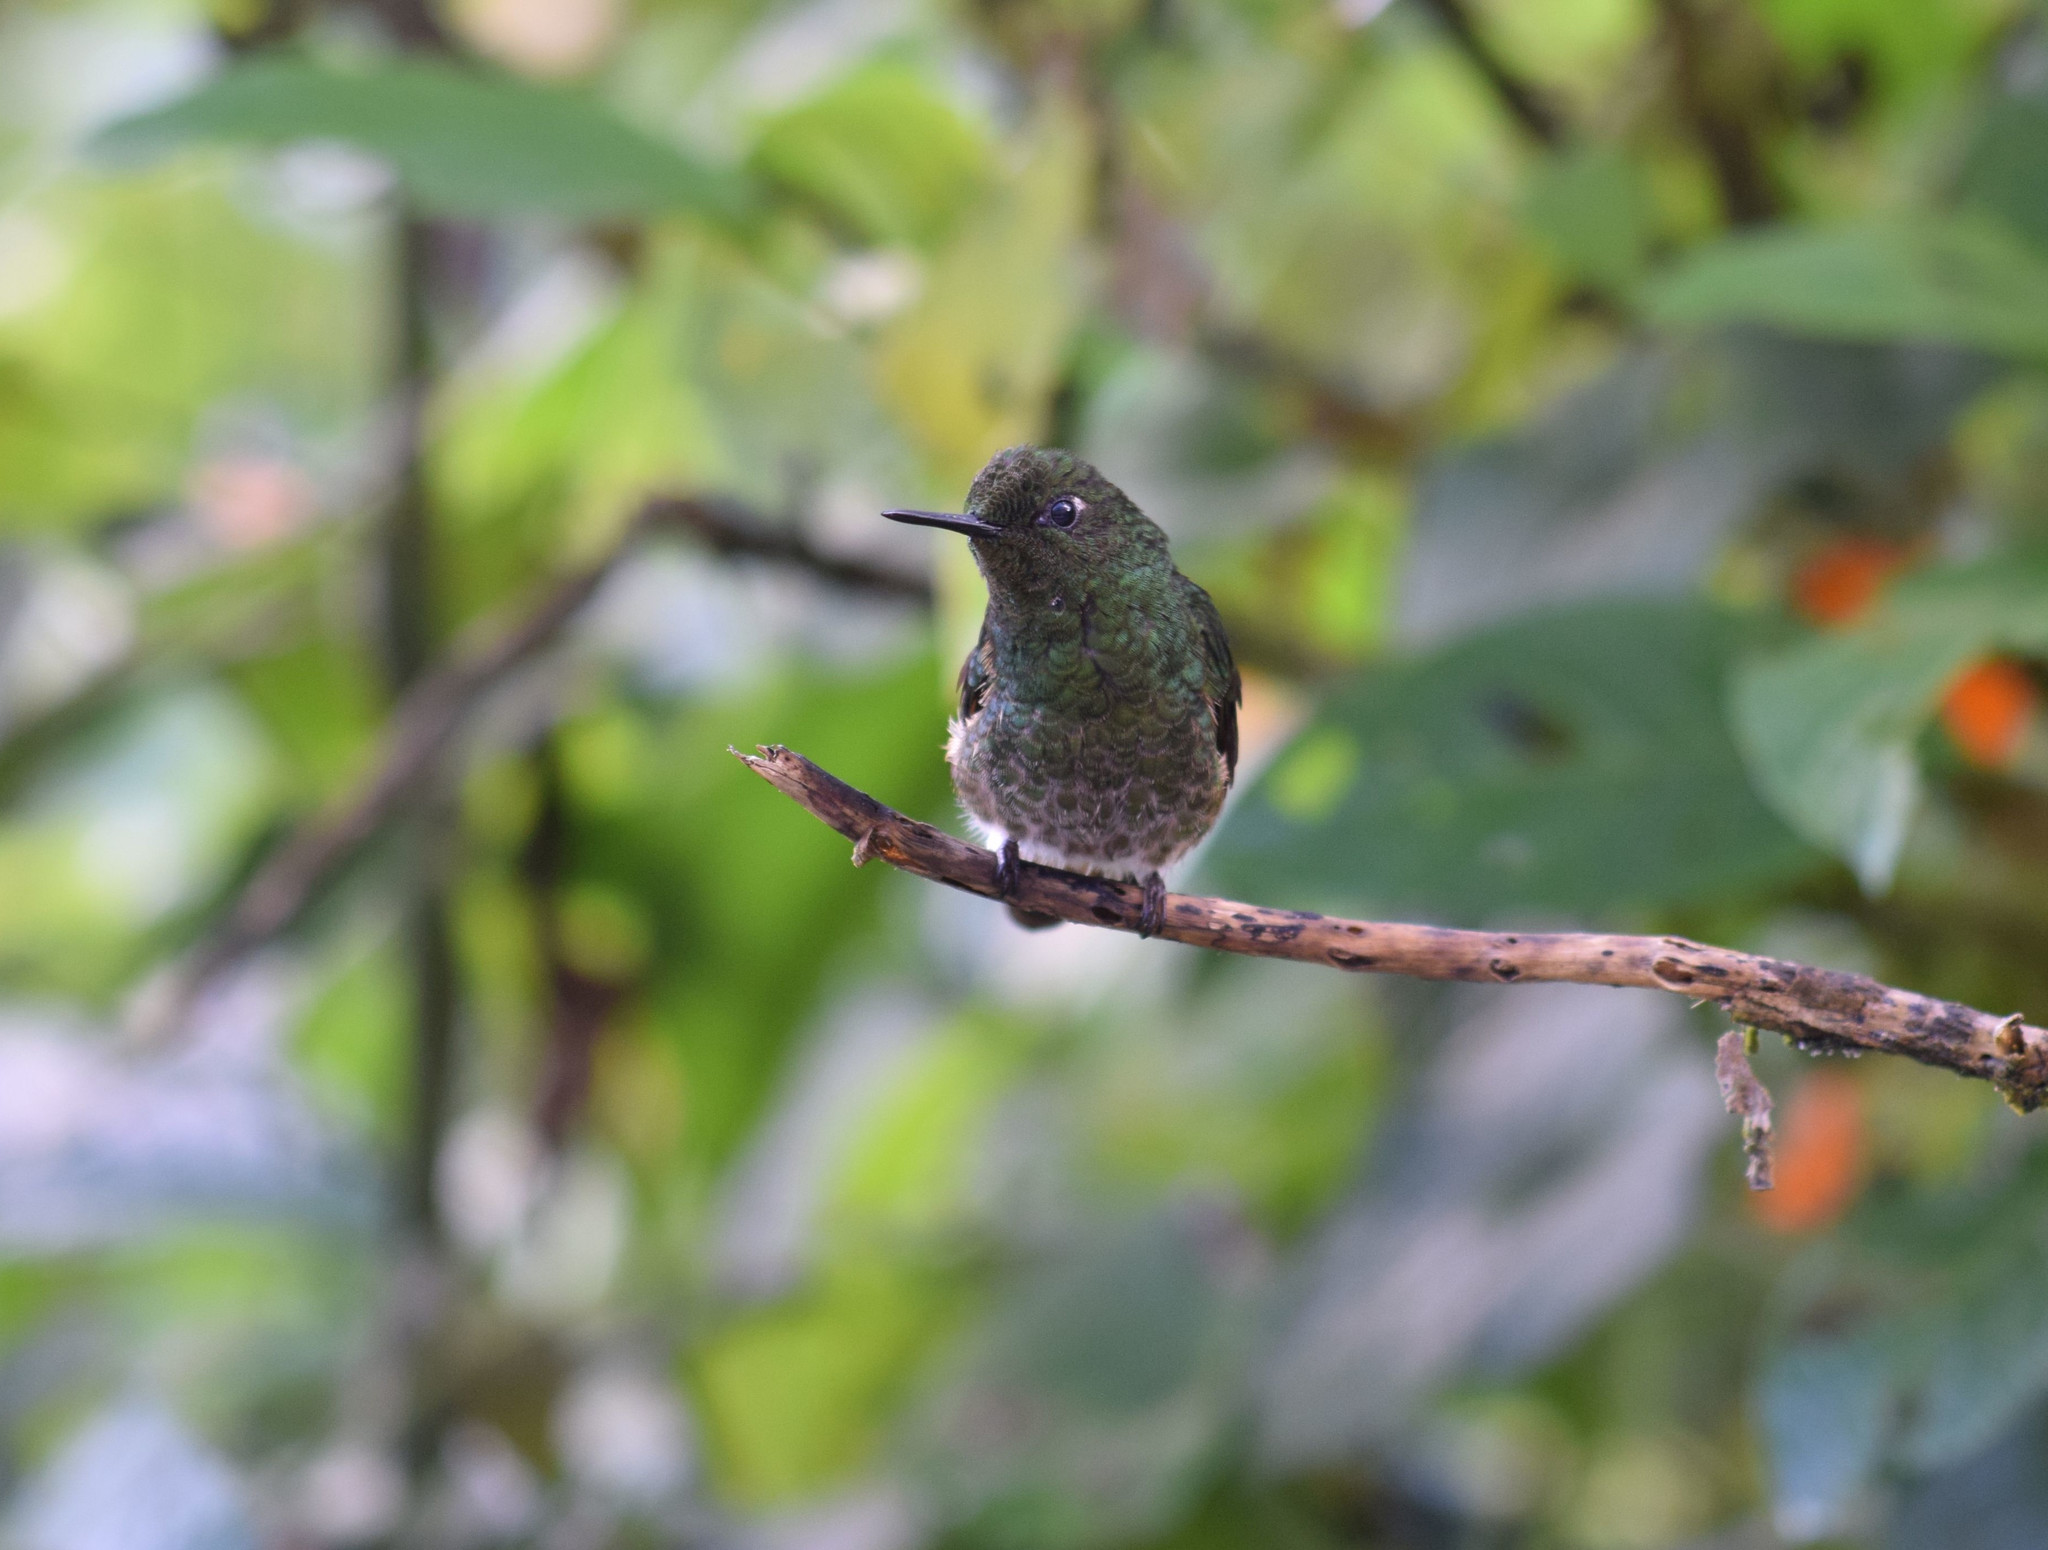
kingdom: Animalia
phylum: Chordata
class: Aves
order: Apodiformes
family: Trochilidae
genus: Boissonneaua
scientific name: Boissonneaua flavescens
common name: Buff-tailed coronet
